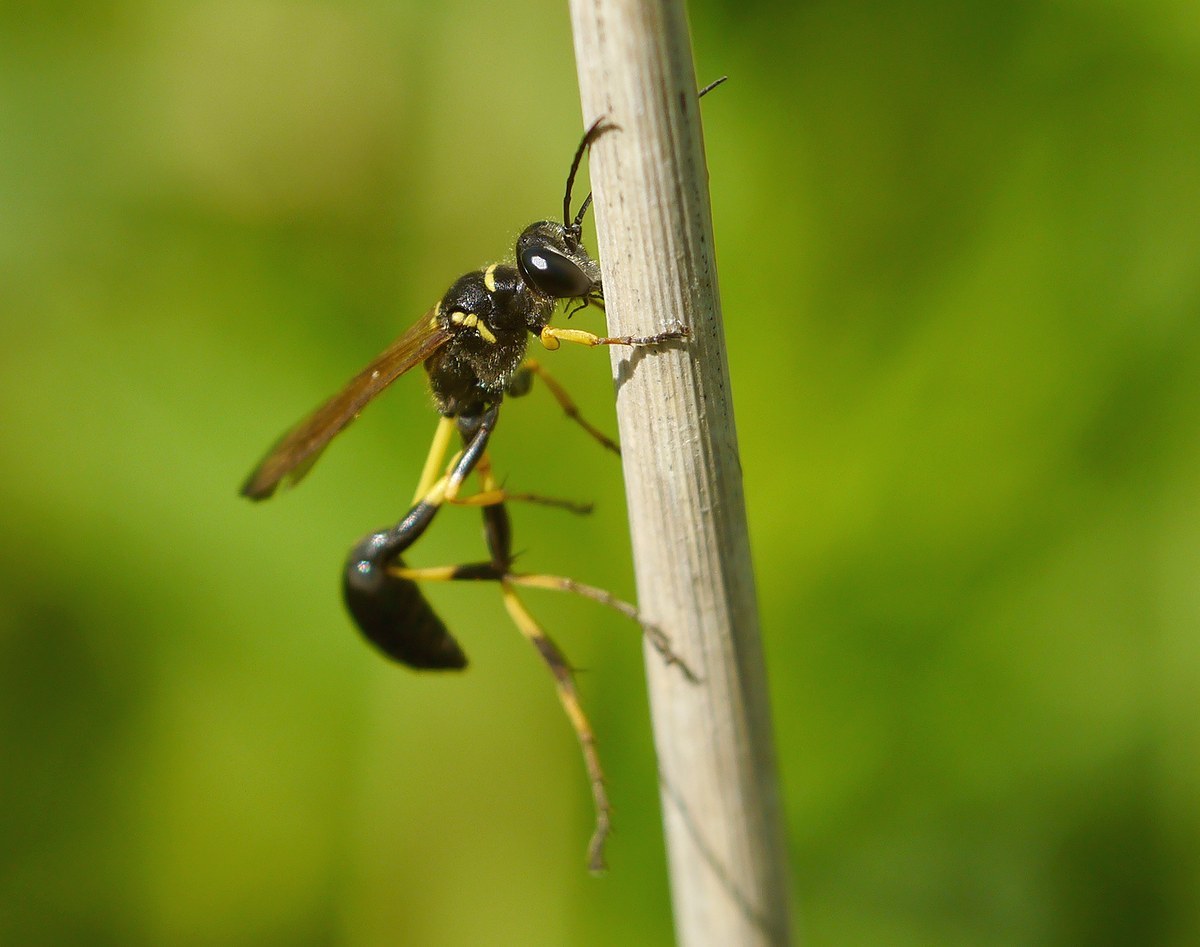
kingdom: Animalia
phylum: Arthropoda
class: Insecta
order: Hymenoptera
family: Sphecidae
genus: Sceliphron
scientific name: Sceliphron madraspatanum
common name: Mud dauber
